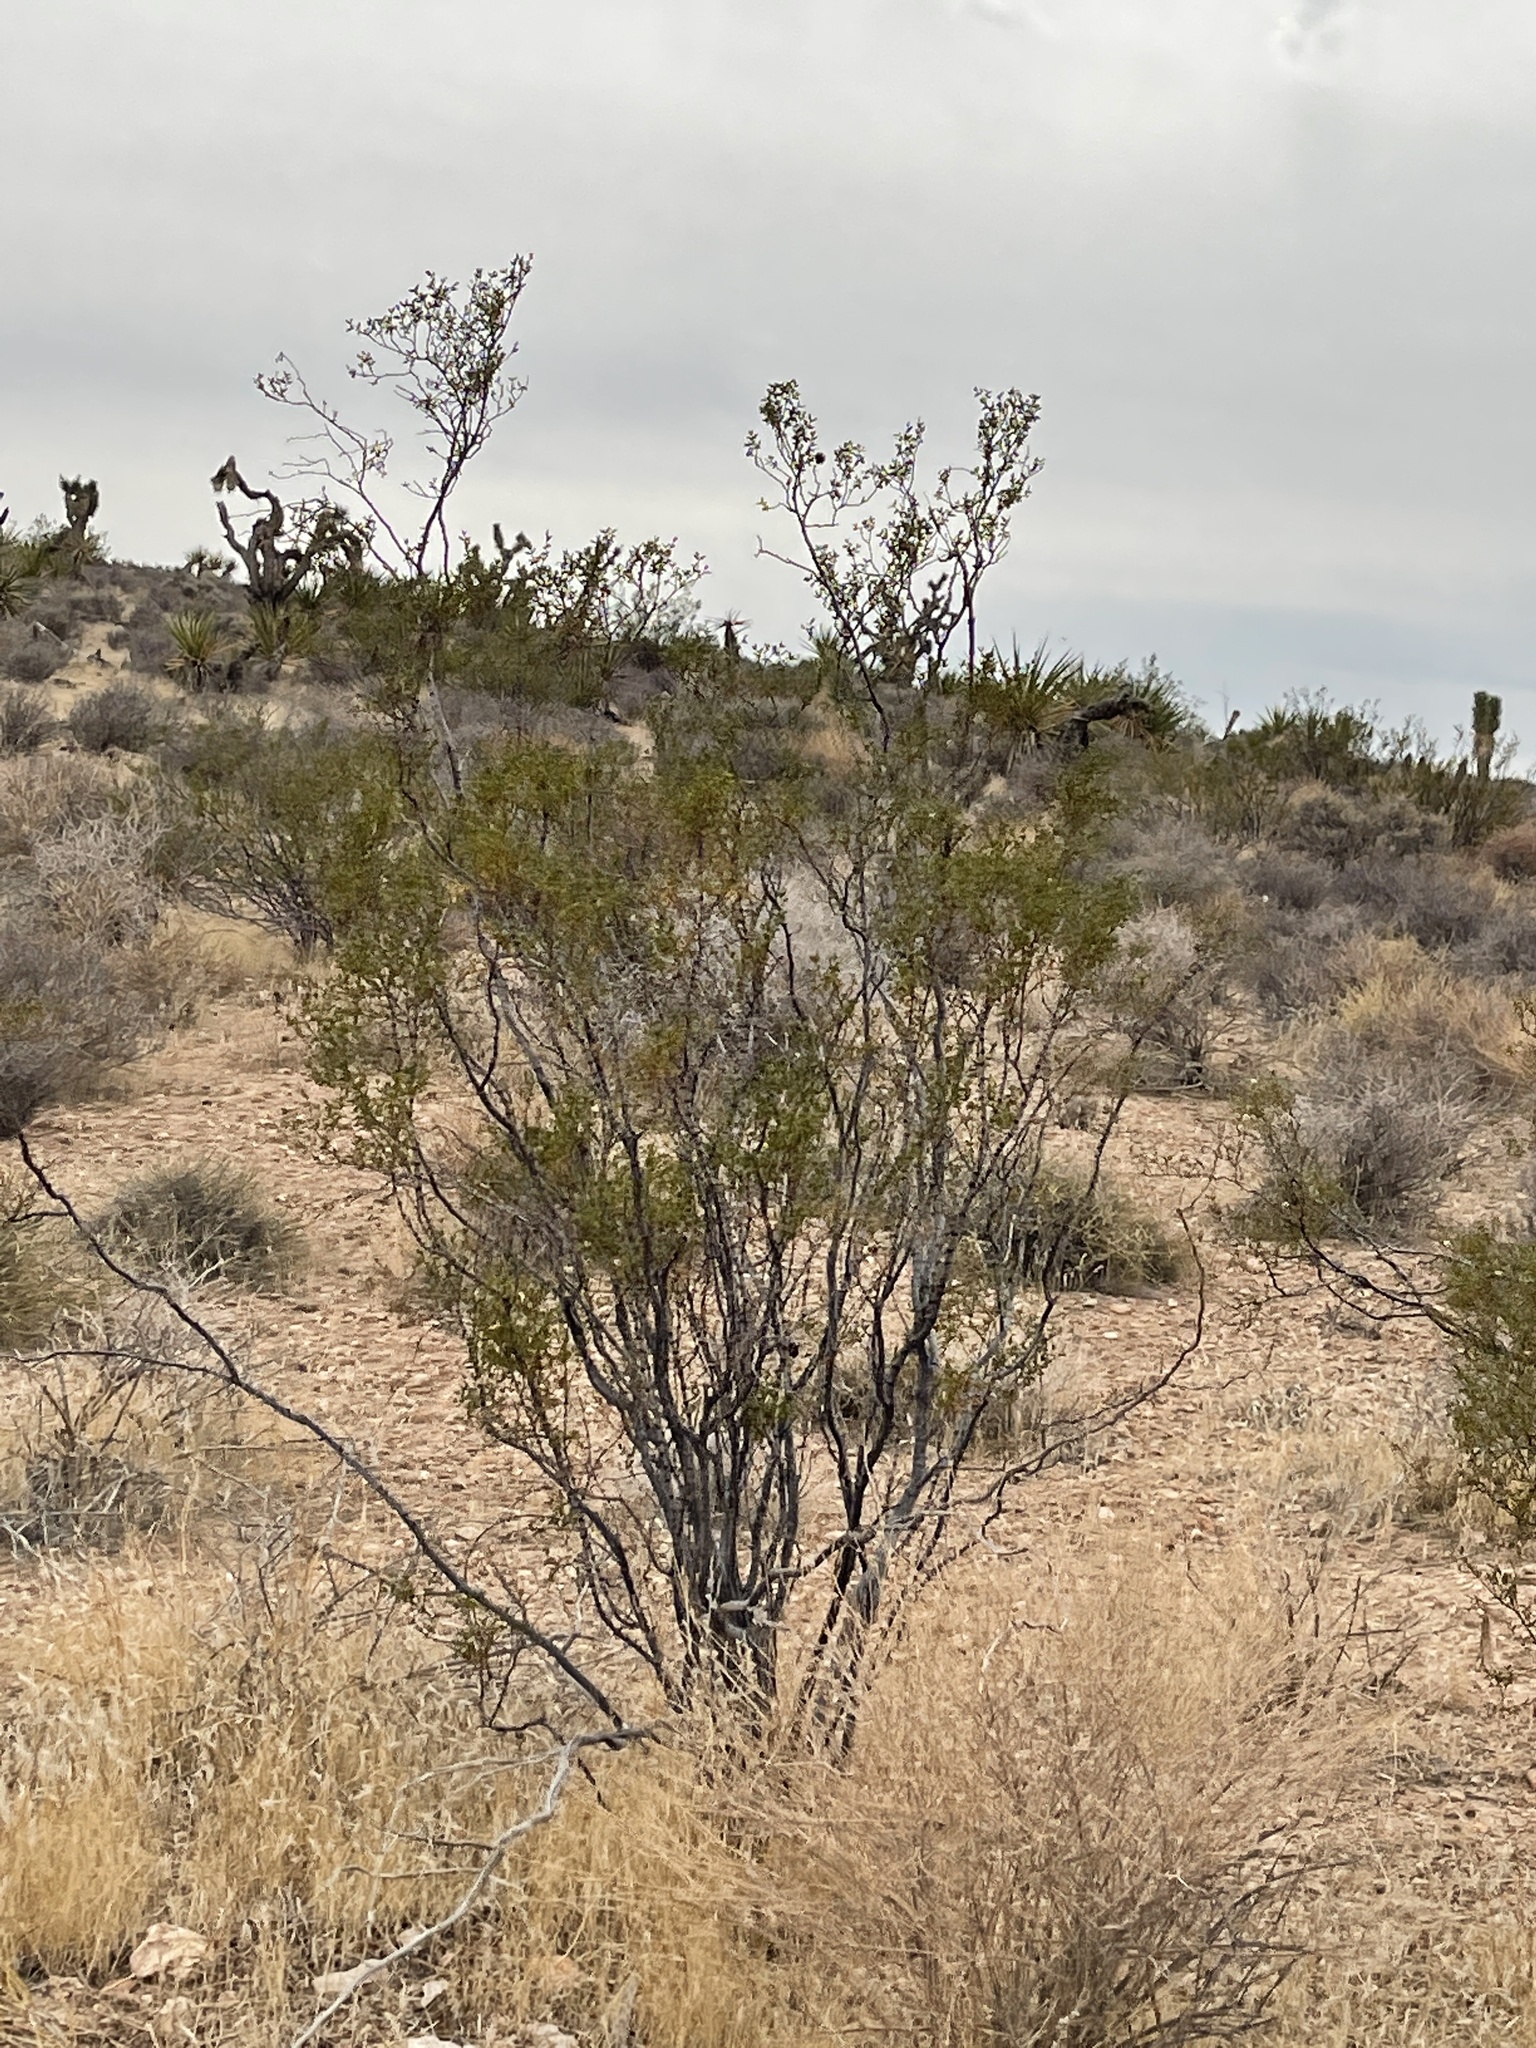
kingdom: Plantae
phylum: Tracheophyta
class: Magnoliopsida
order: Zygophyllales
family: Zygophyllaceae
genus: Larrea
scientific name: Larrea tridentata
